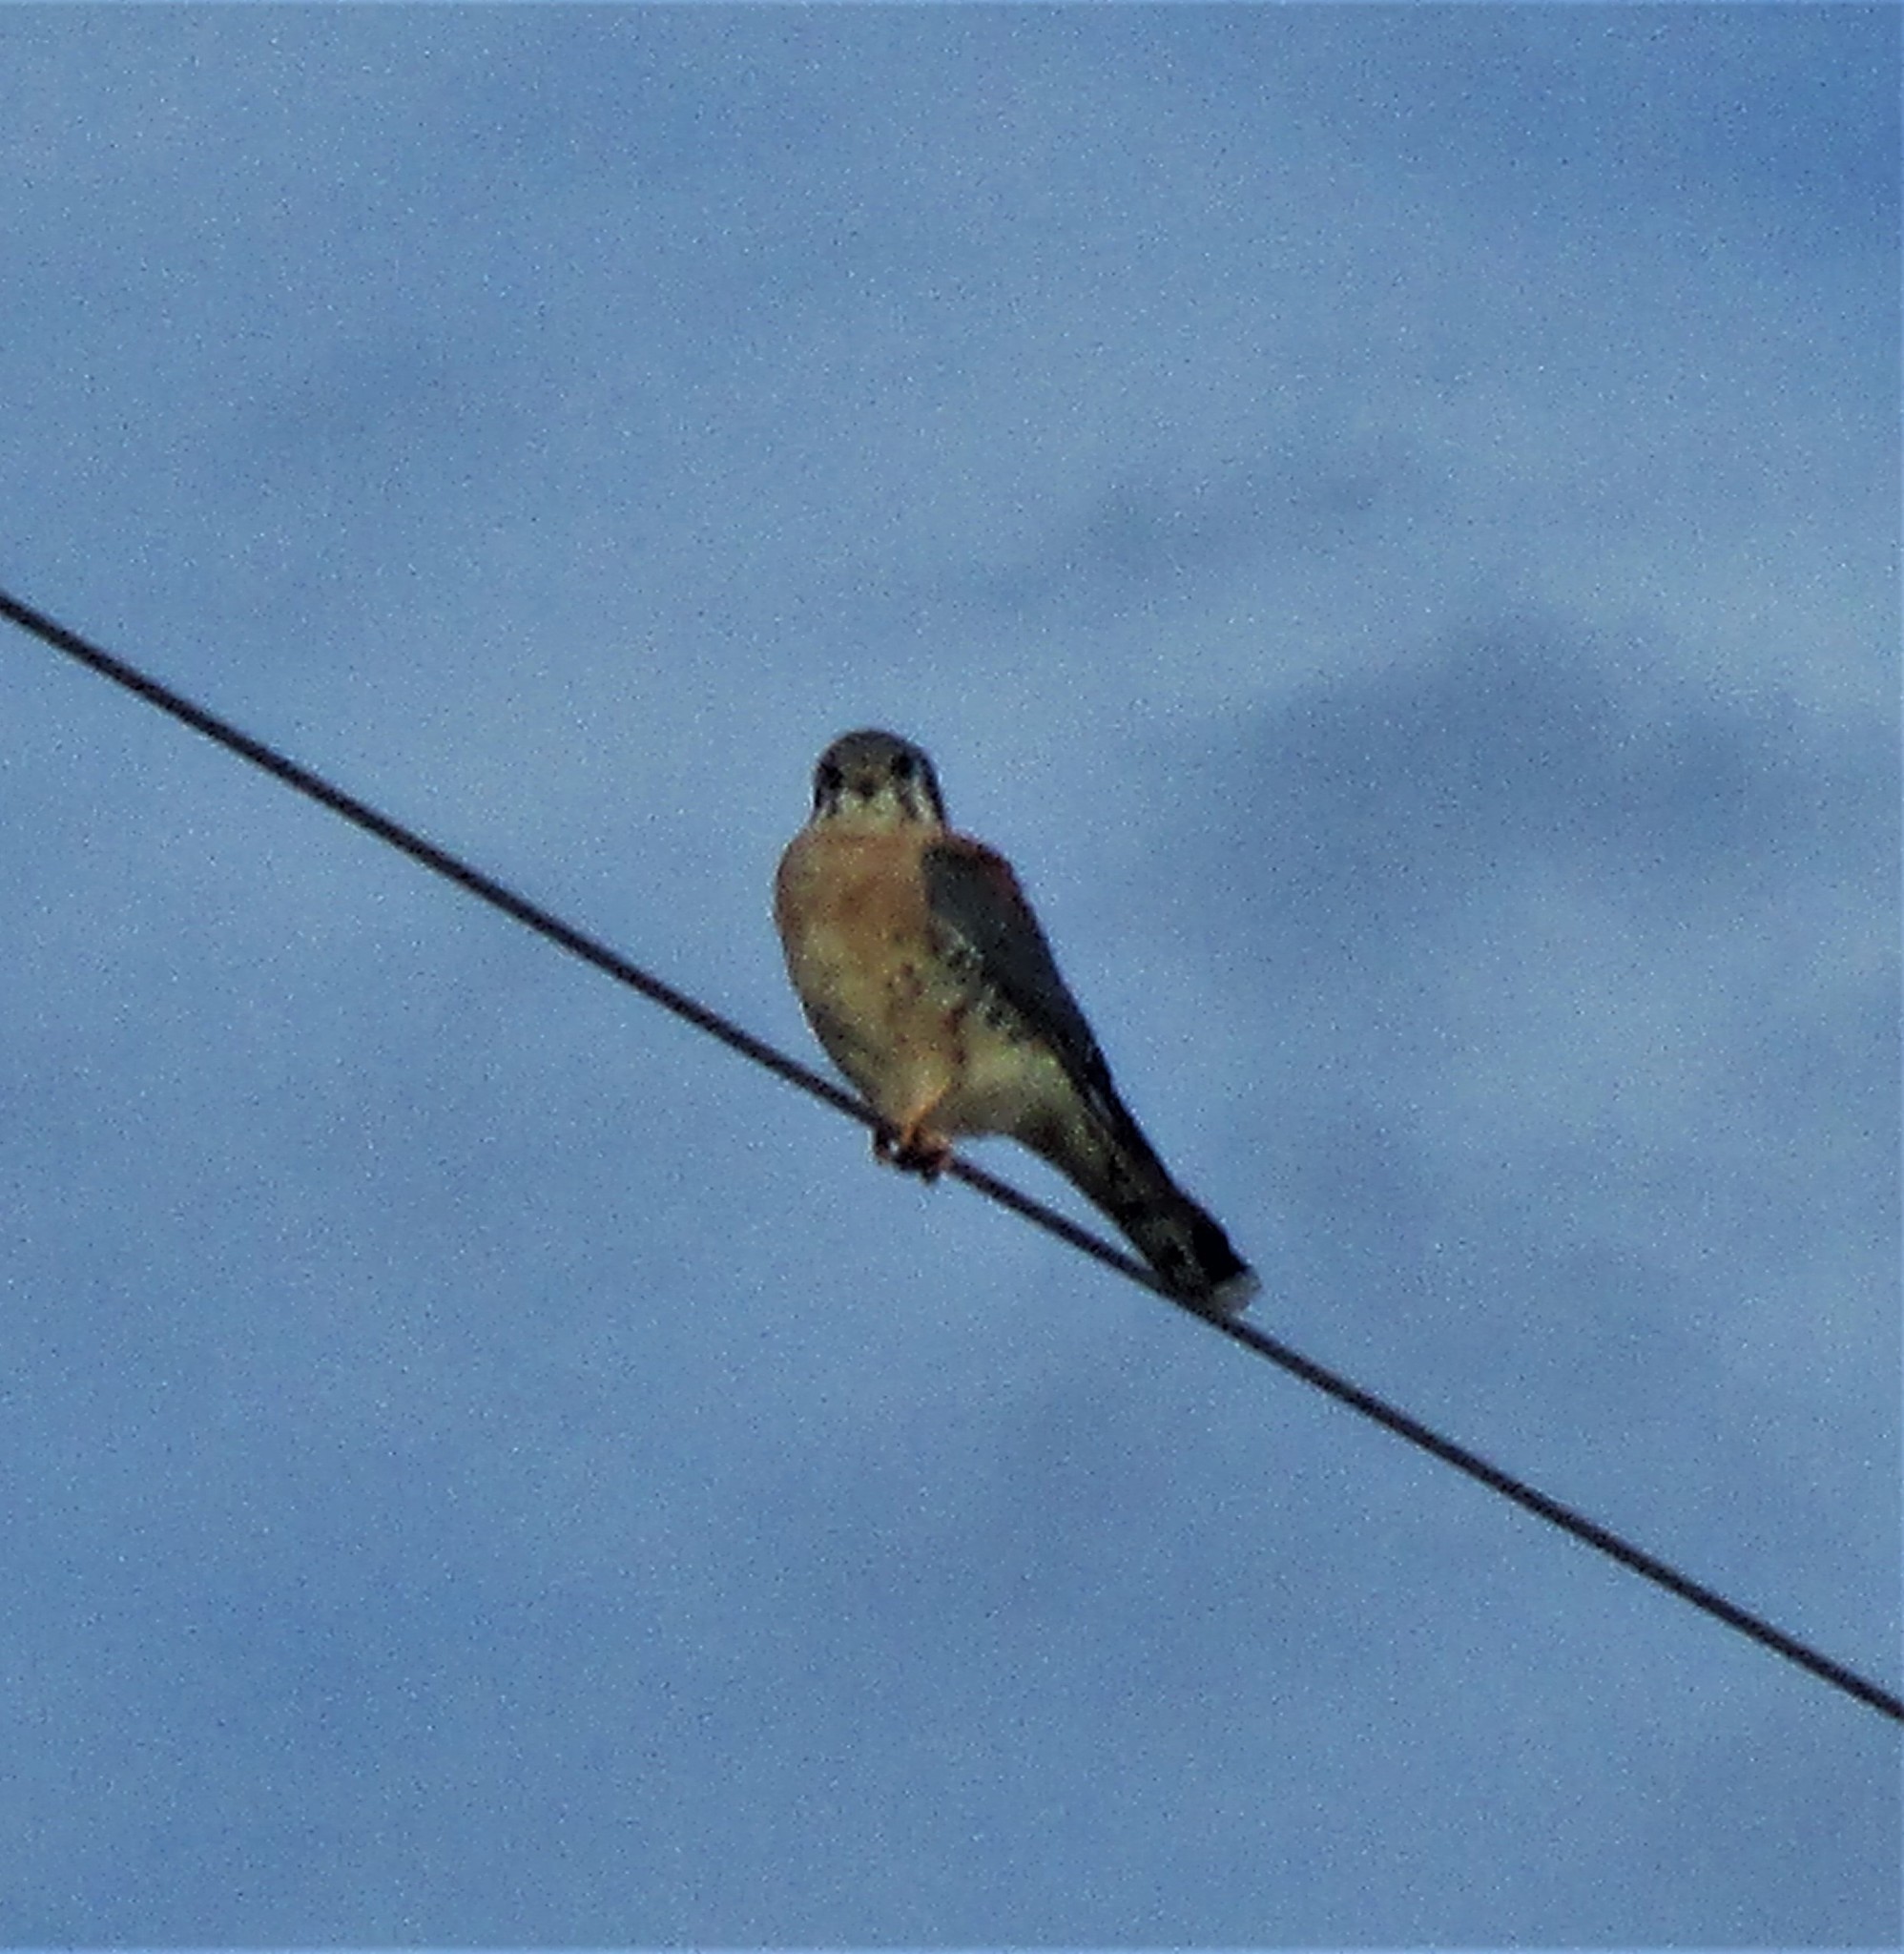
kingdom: Animalia
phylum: Chordata
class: Aves
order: Falconiformes
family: Falconidae
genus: Falco
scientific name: Falco sparverius
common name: American kestrel
